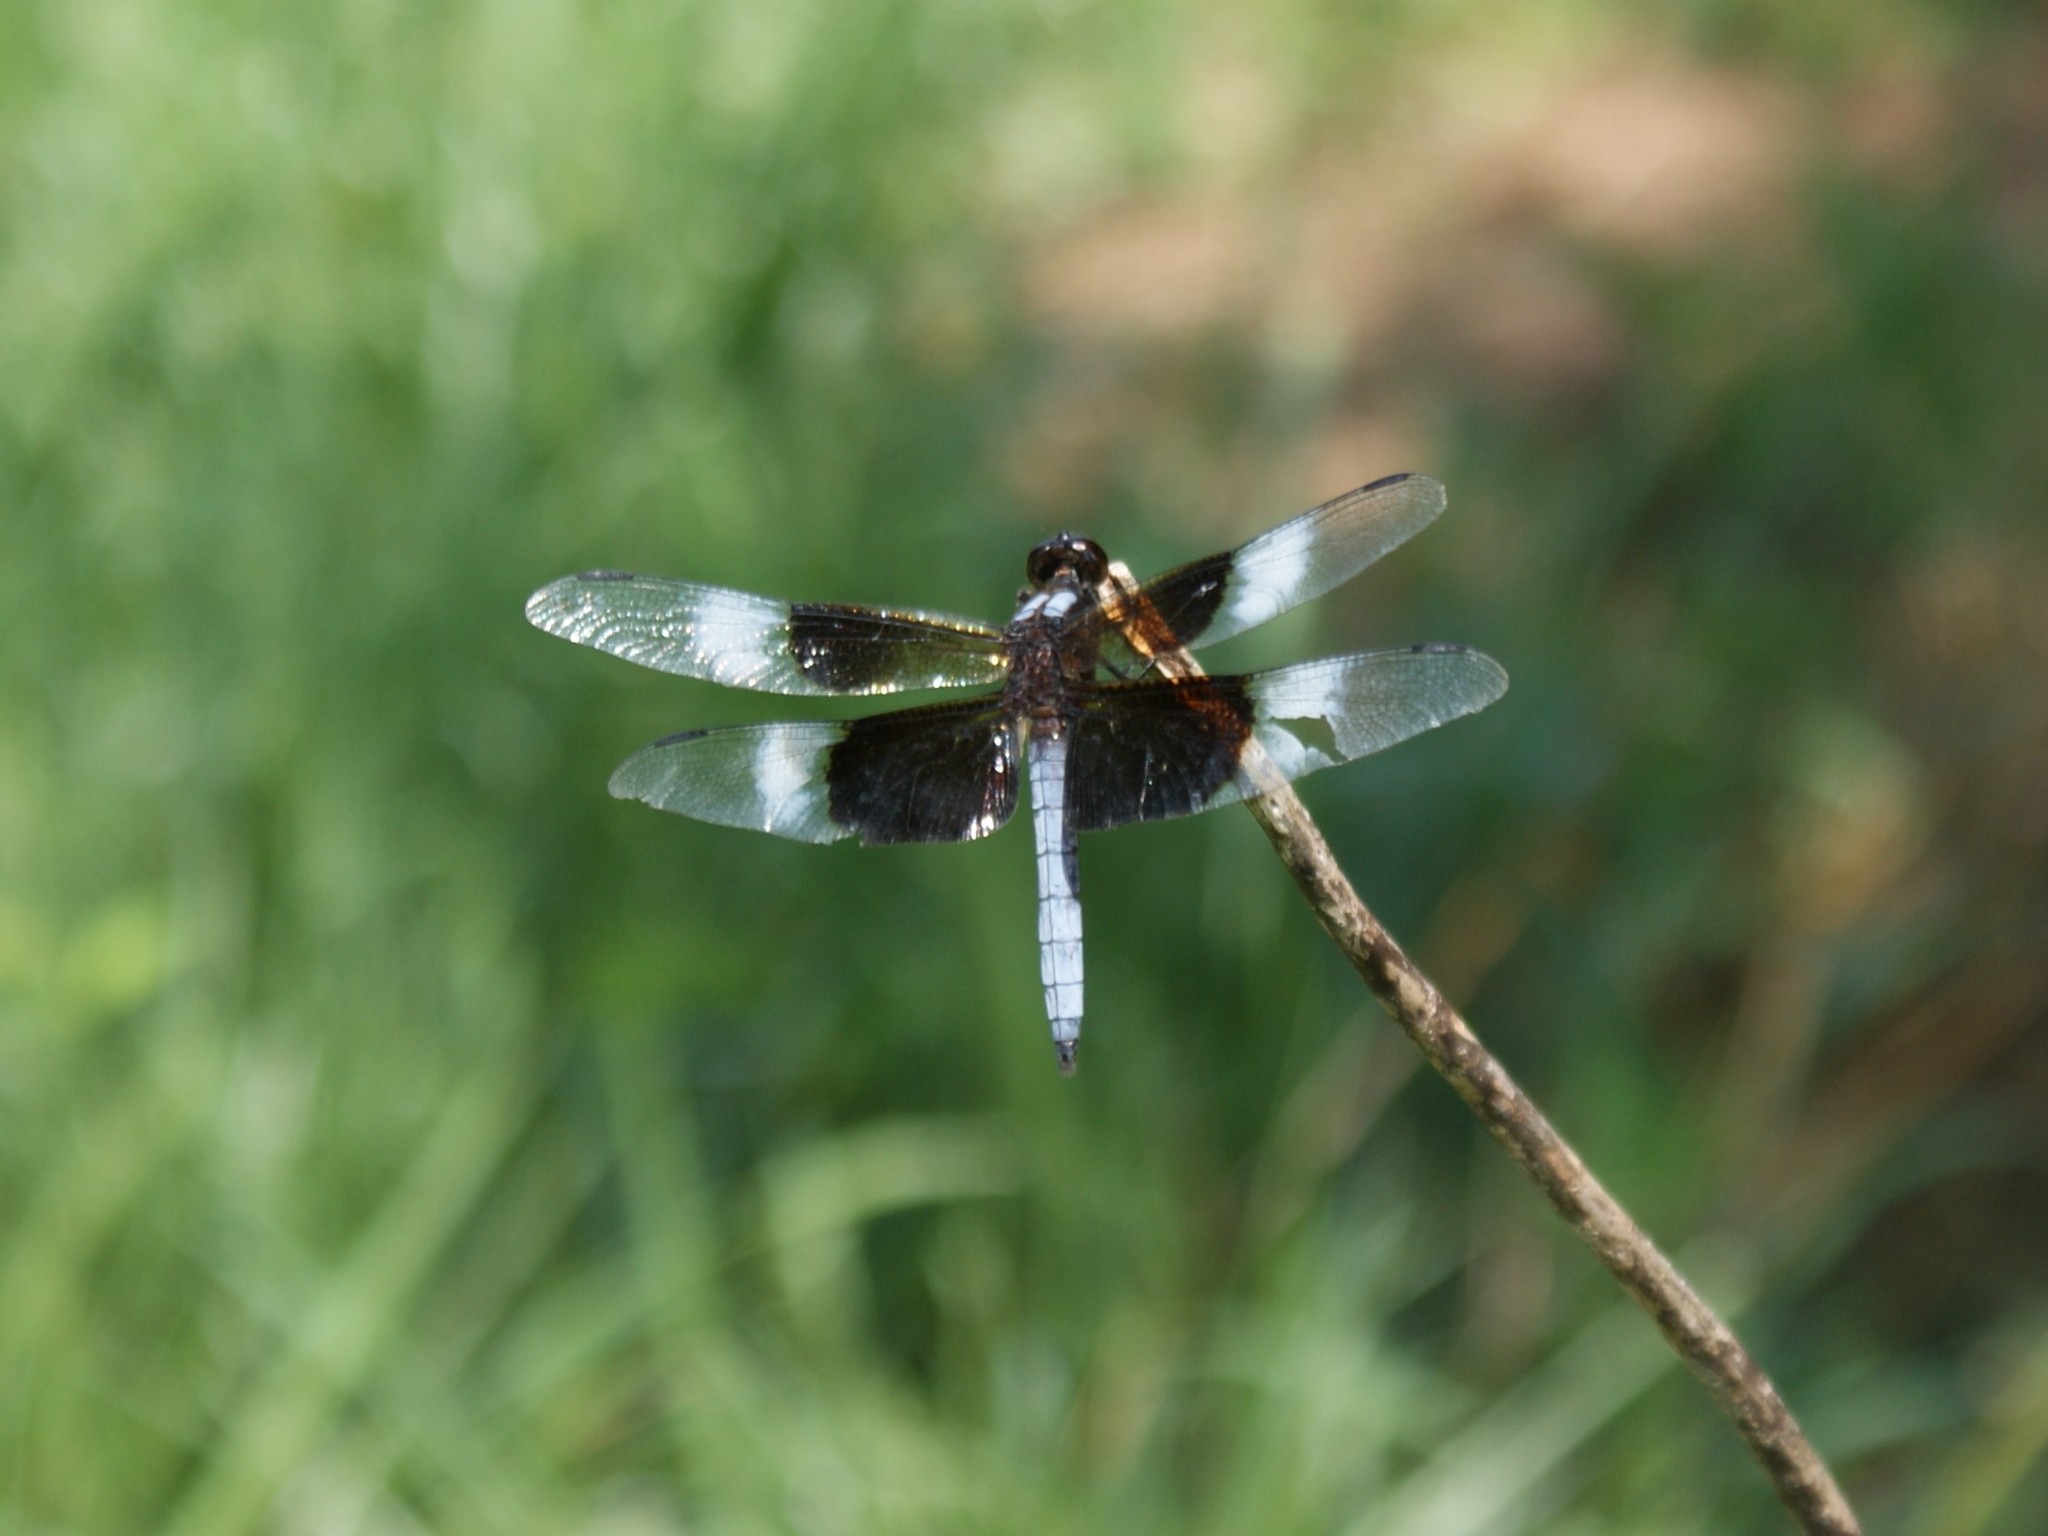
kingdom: Animalia
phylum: Arthropoda
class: Insecta
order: Odonata
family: Libellulidae
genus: Libellula
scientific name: Libellula luctuosa
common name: Widow skimmer
